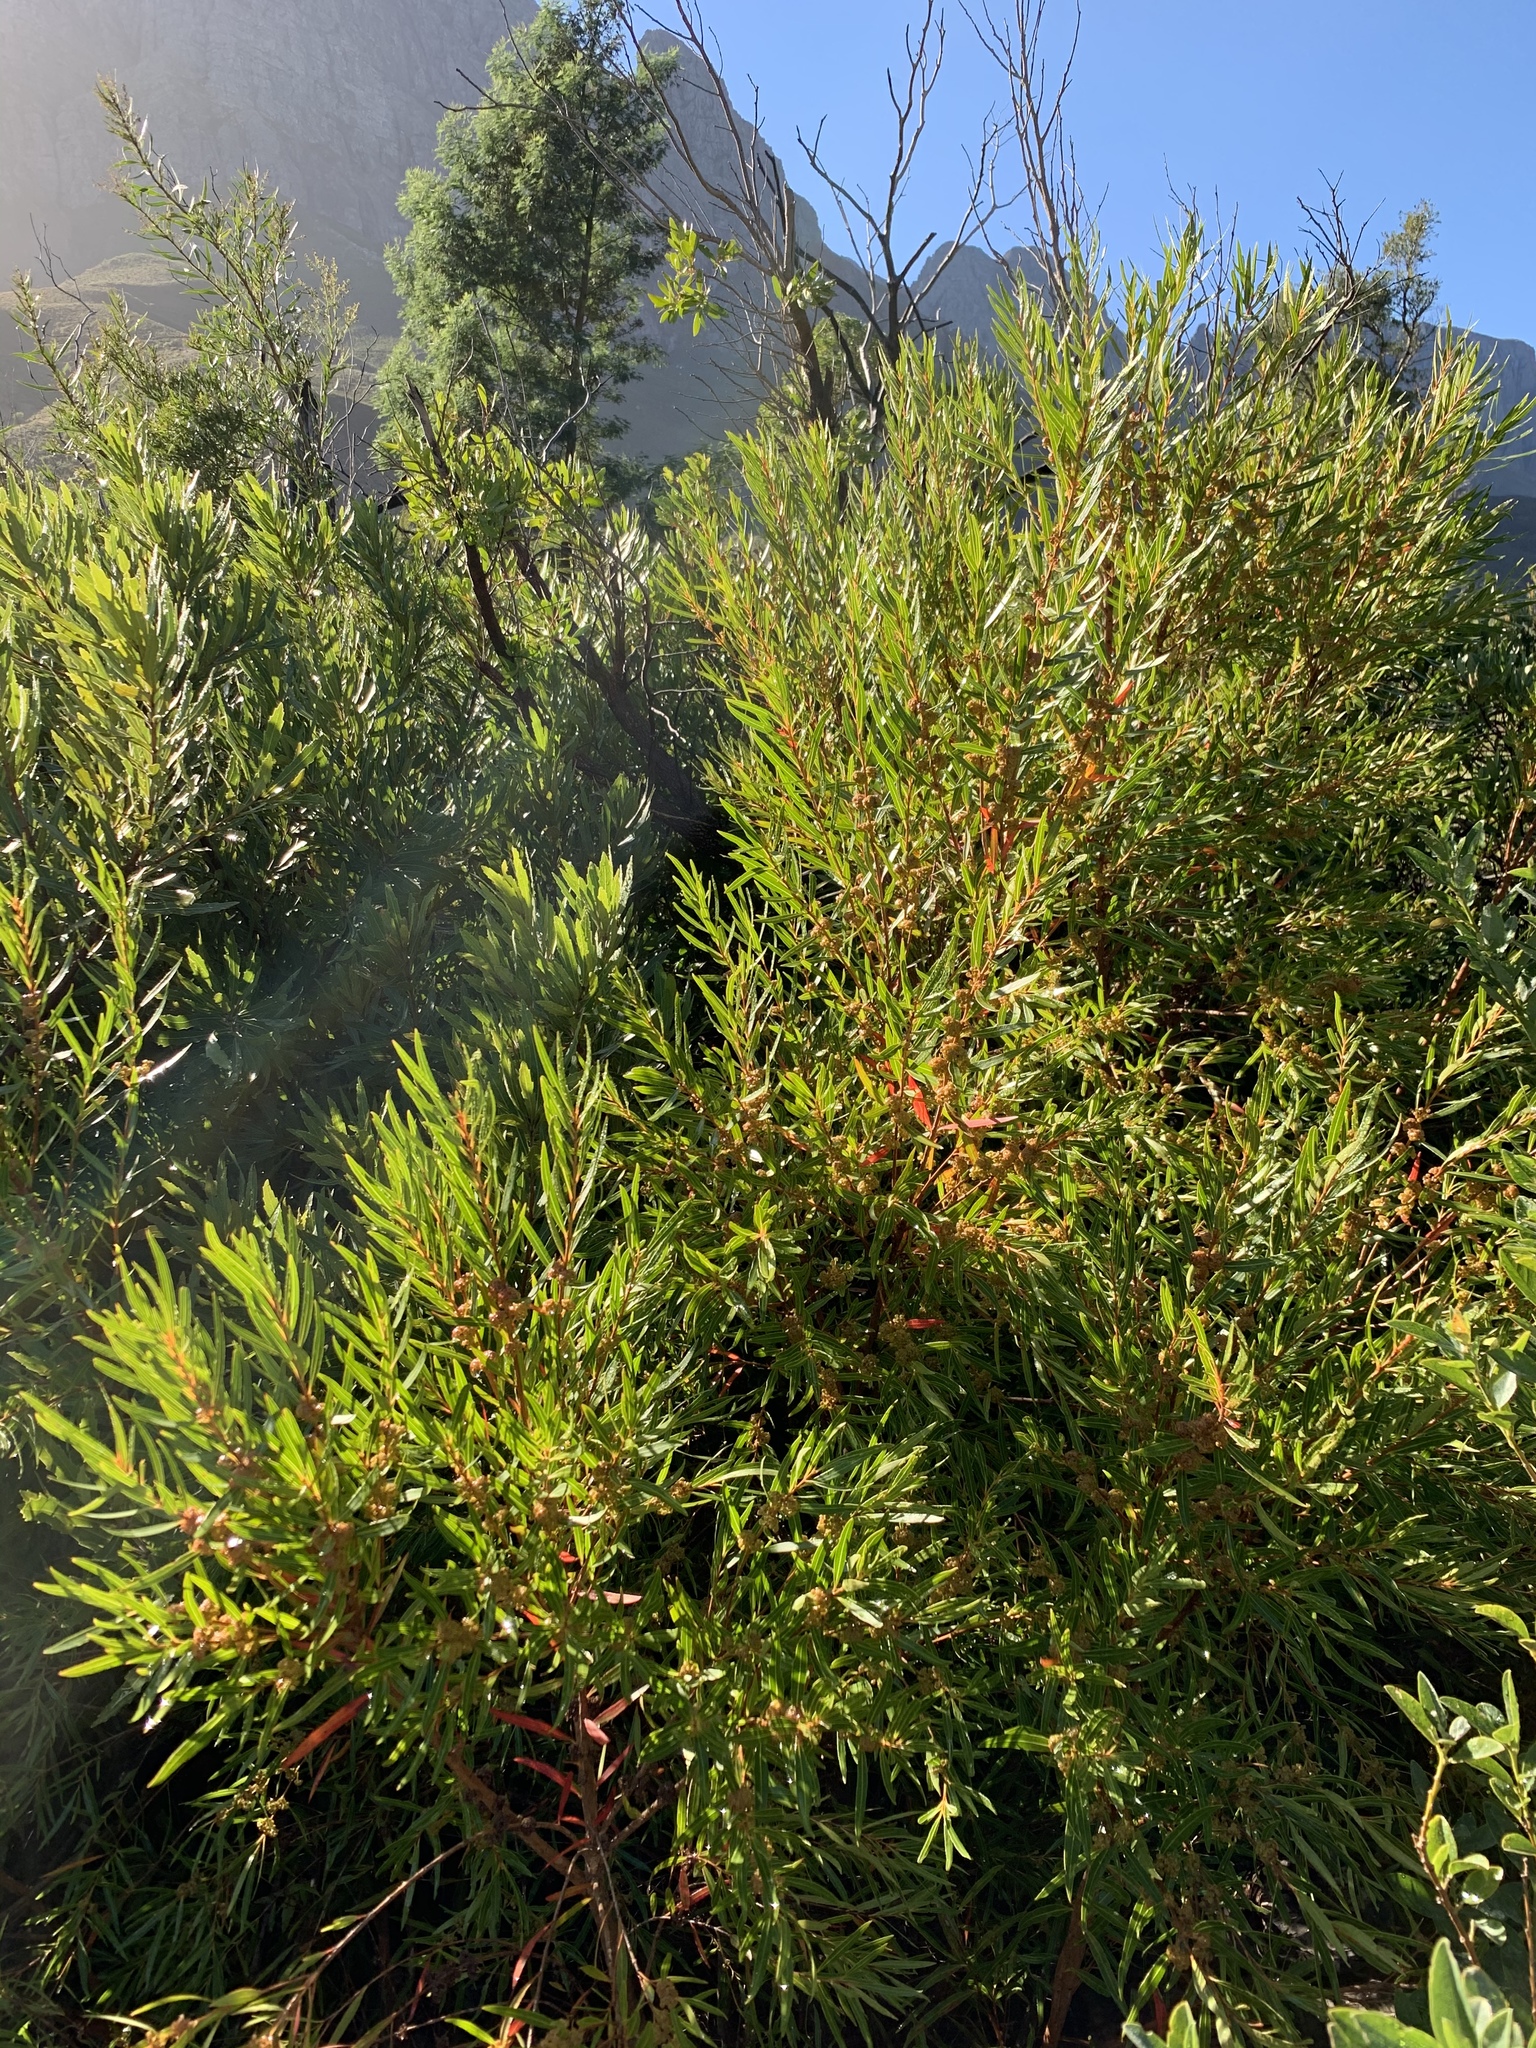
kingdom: Plantae
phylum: Tracheophyta
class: Magnoliopsida
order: Myrtales
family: Myrtaceae
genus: Callistemon
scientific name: Callistemon lanceolatus
